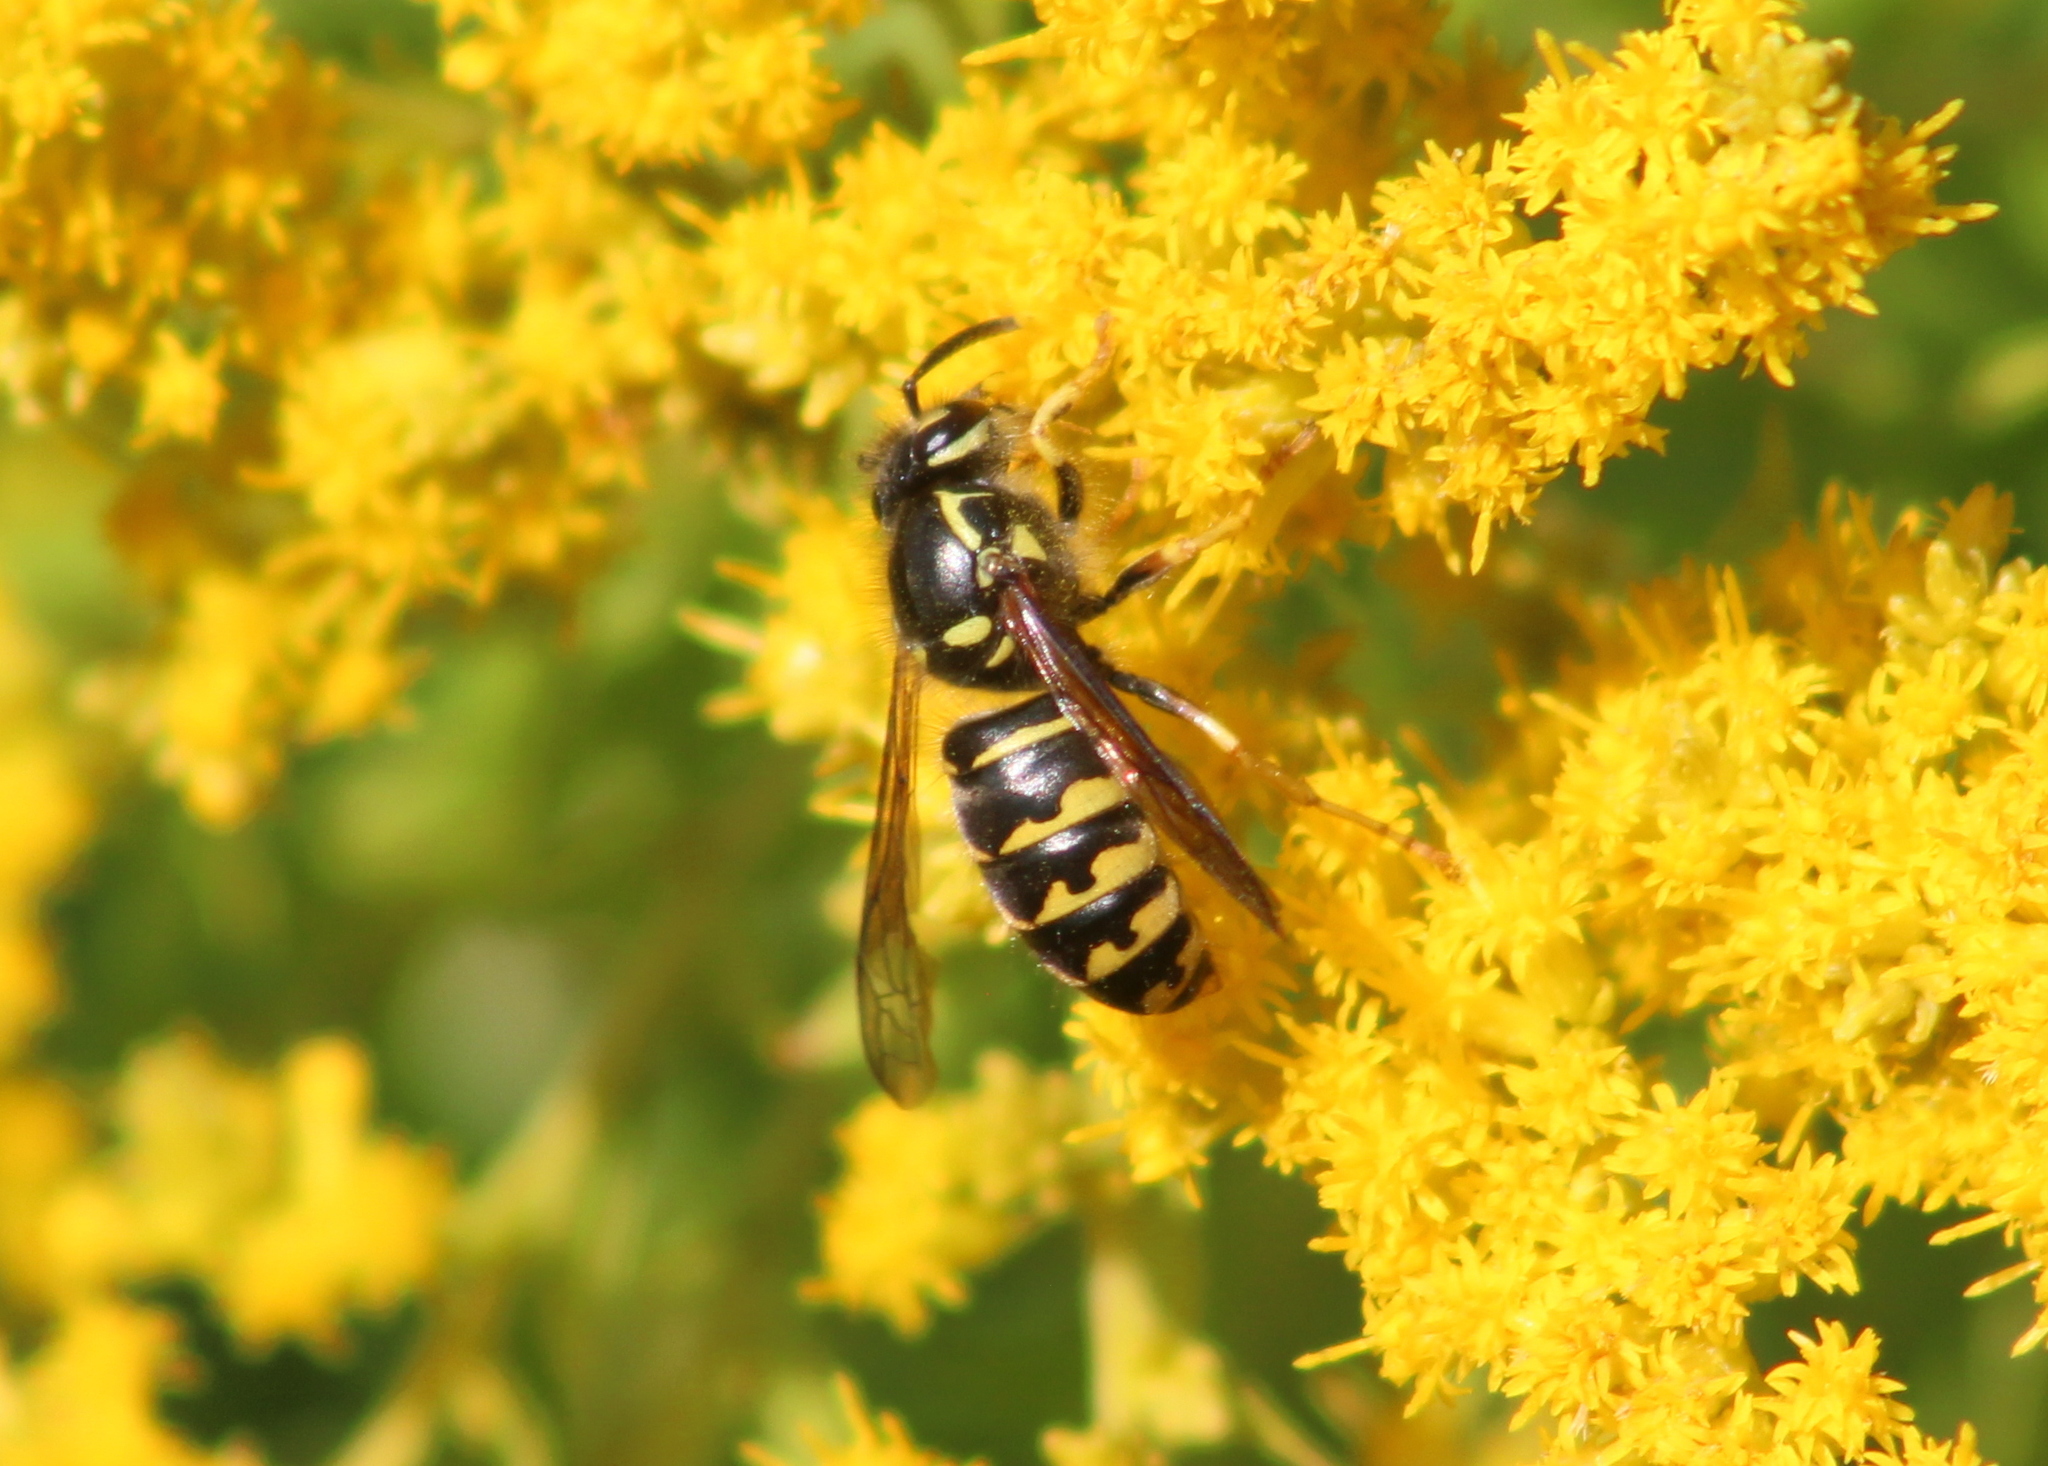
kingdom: Animalia
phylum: Arthropoda
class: Insecta
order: Hymenoptera
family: Vespidae
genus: Dolichovespula
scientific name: Dolichovespula arenaria
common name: Aerial yellowjacket
